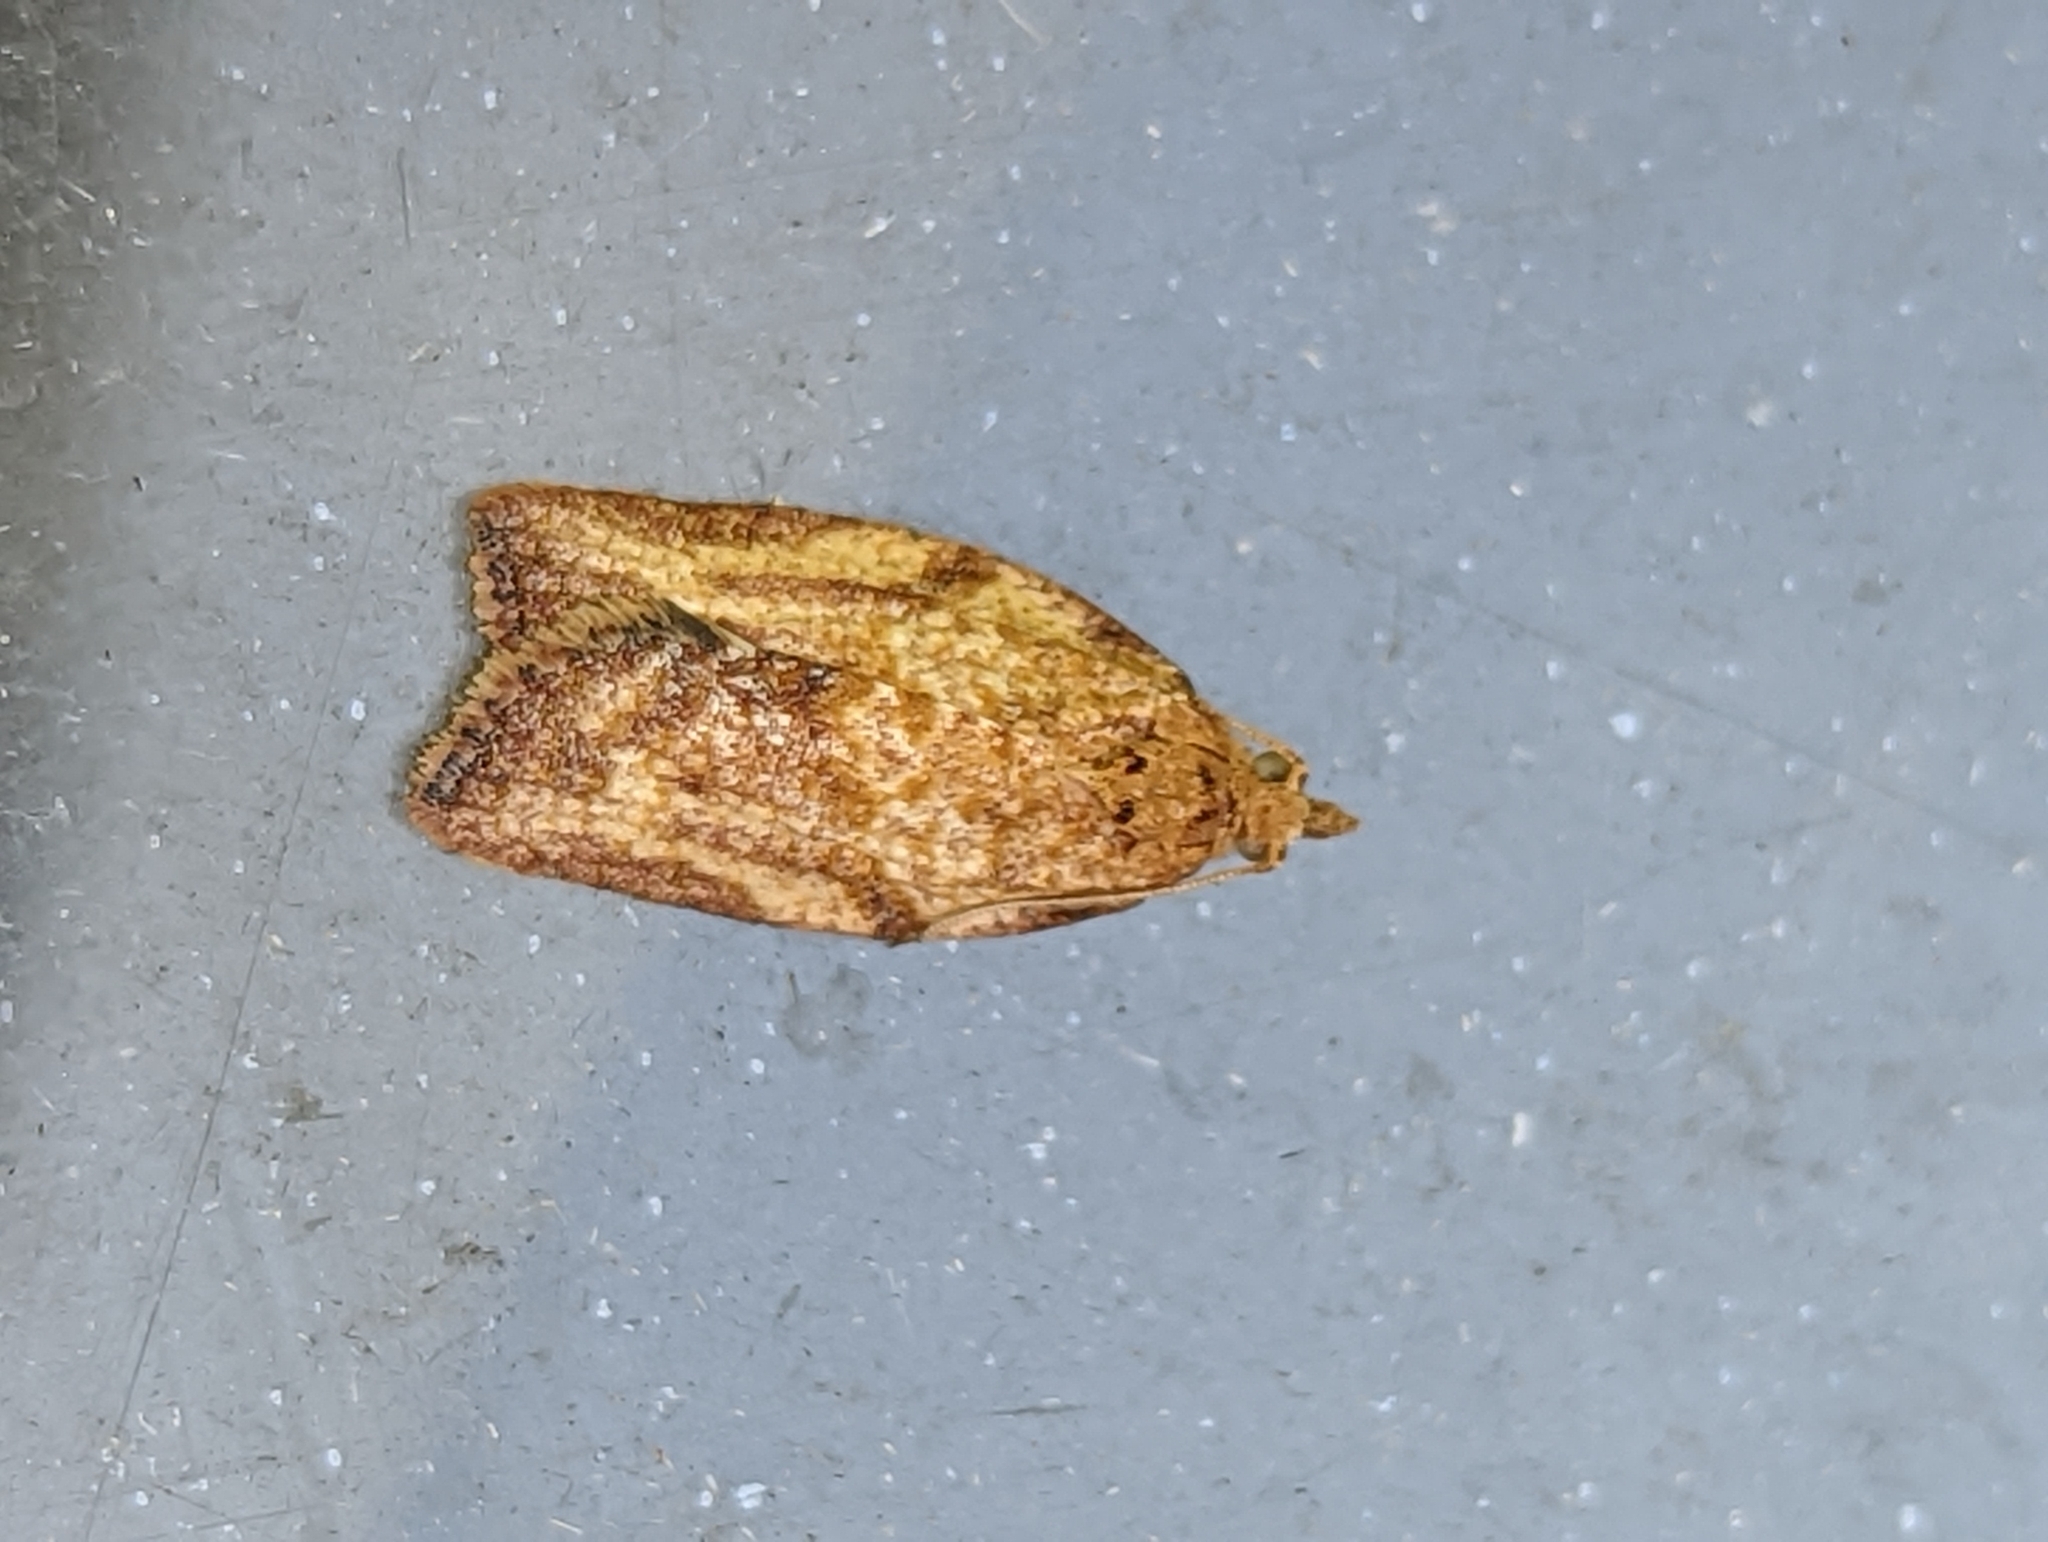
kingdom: Animalia
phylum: Arthropoda
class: Insecta
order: Lepidoptera
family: Tortricidae
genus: Epiphyas
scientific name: Epiphyas postvittana
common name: Light brown apple moth
